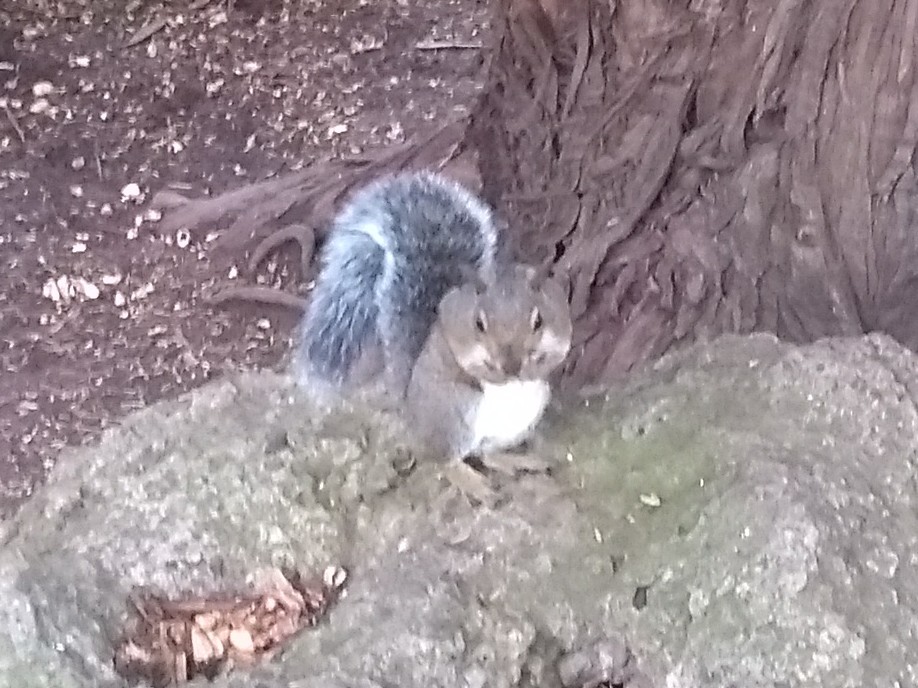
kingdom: Animalia
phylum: Chordata
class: Mammalia
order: Rodentia
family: Sciuridae
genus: Sciurus
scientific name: Sciurus carolinensis
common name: Eastern gray squirrel
